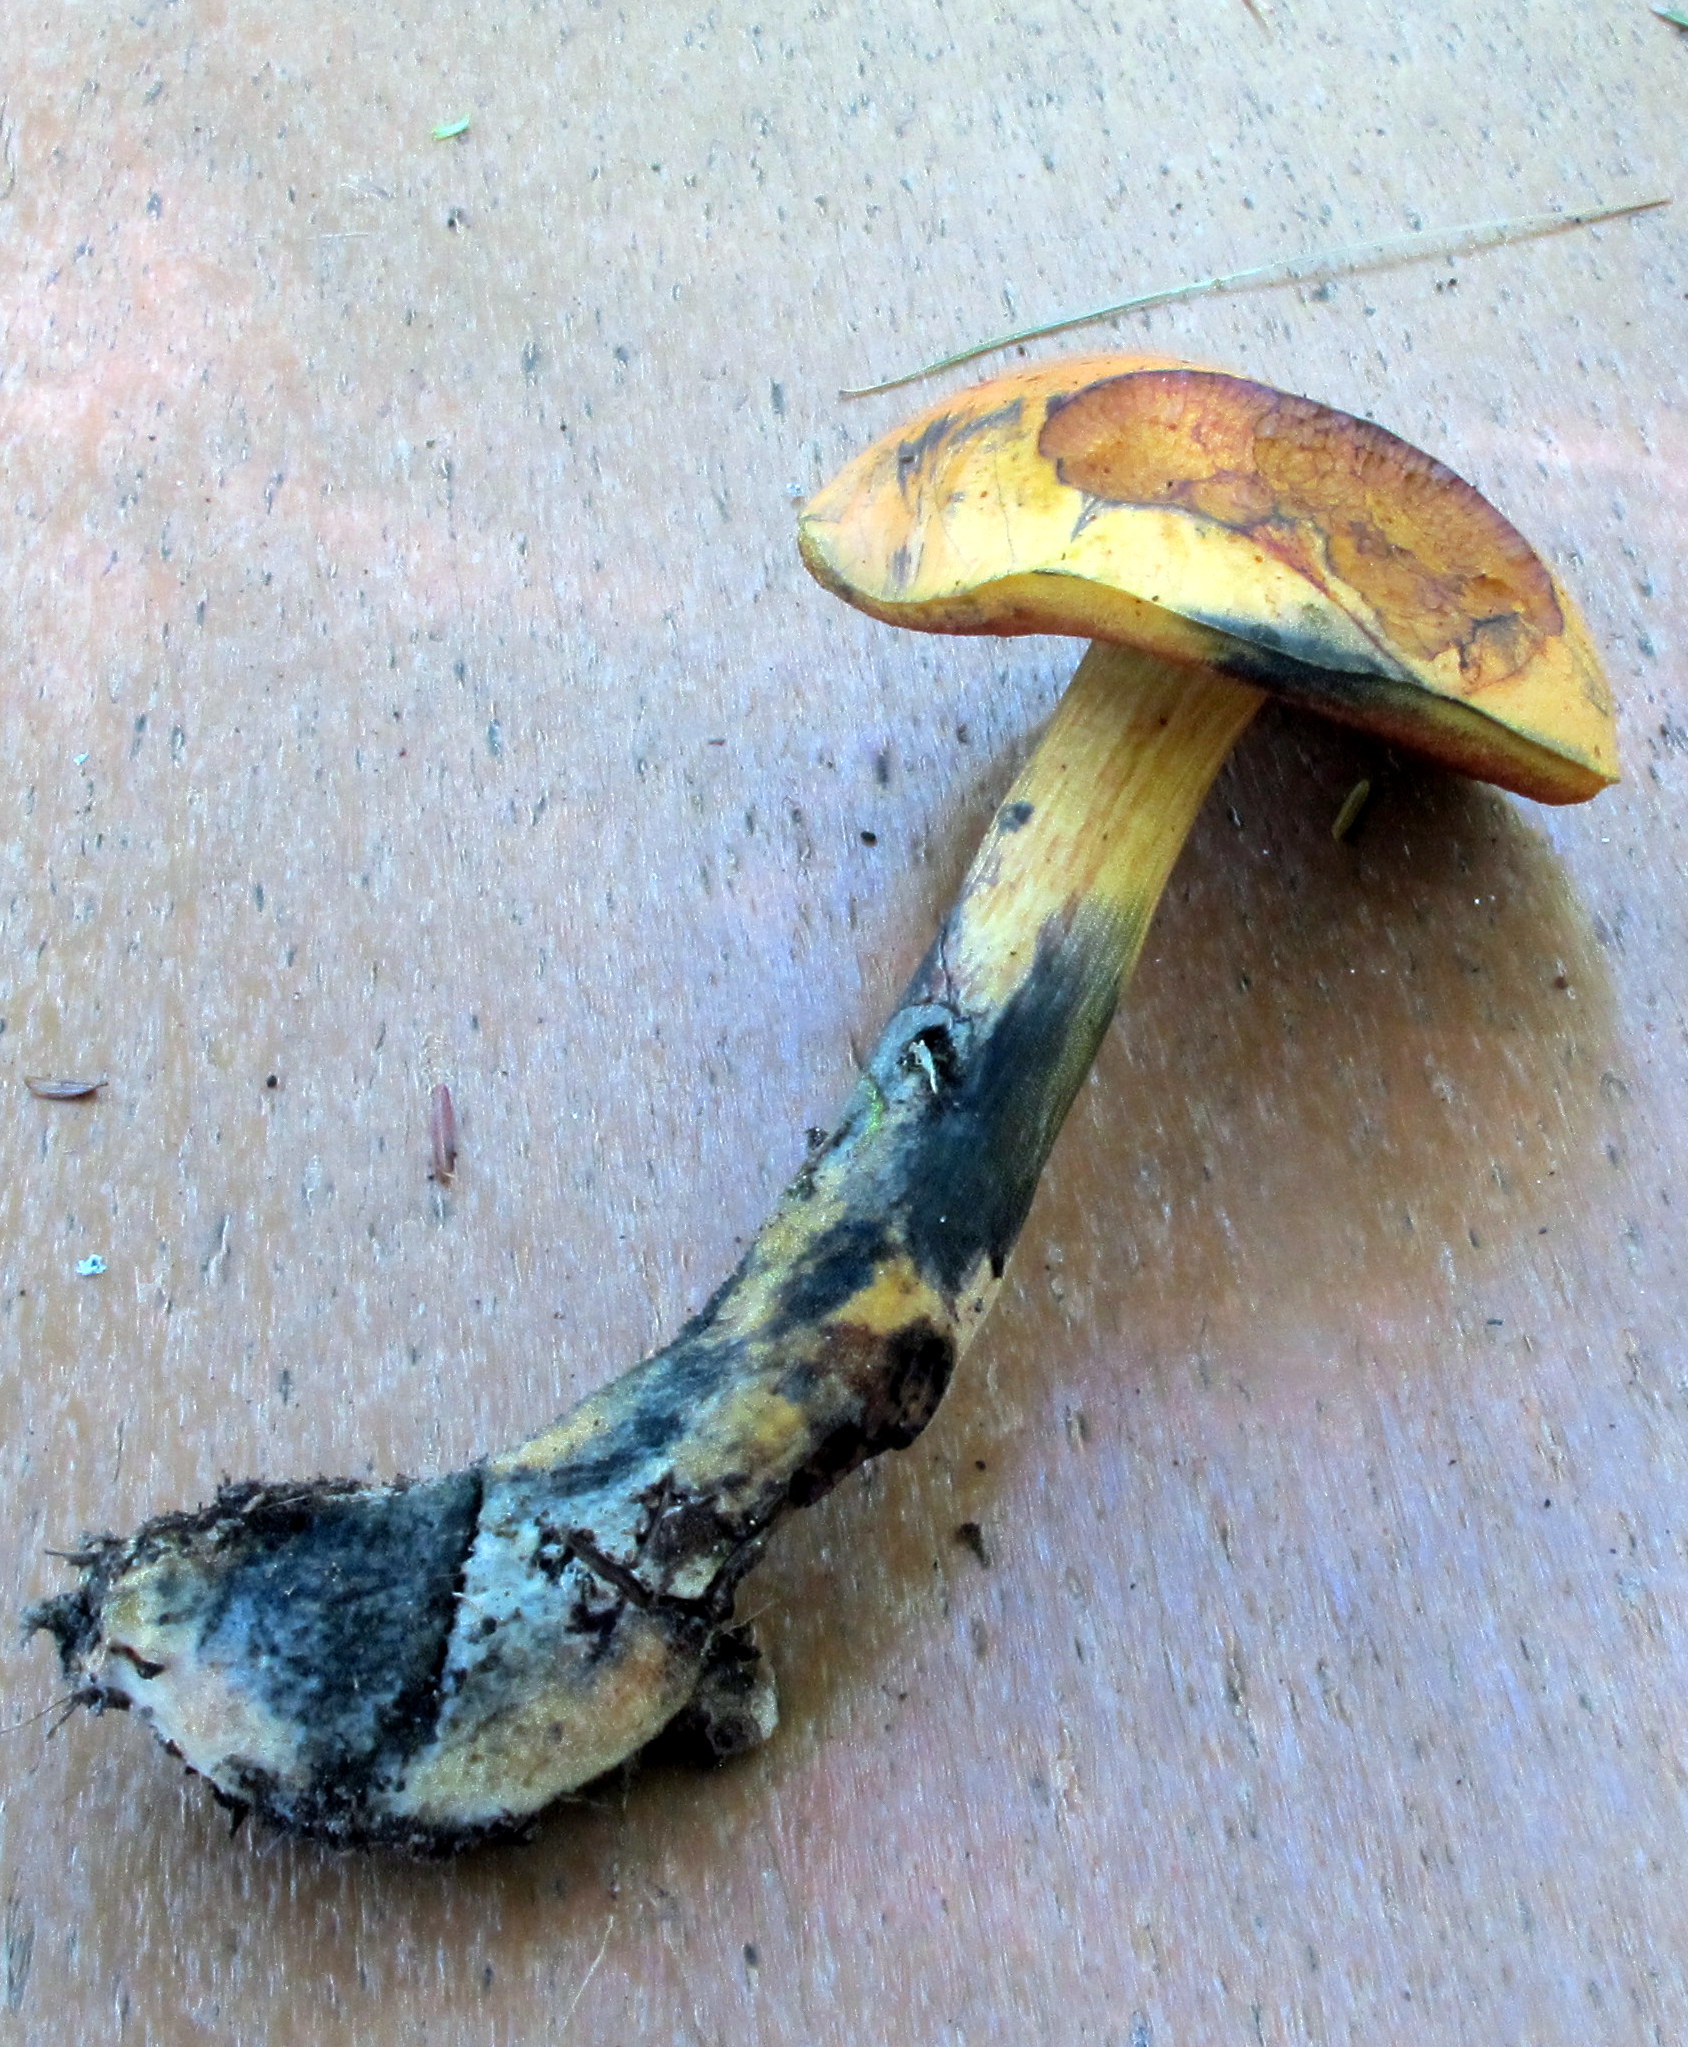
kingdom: Fungi
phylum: Basidiomycota
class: Agaricomycetes
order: Boletales
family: Boletaceae
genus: Neoboletus
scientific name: Neoboletus xanthopus
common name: False yellow bolete
